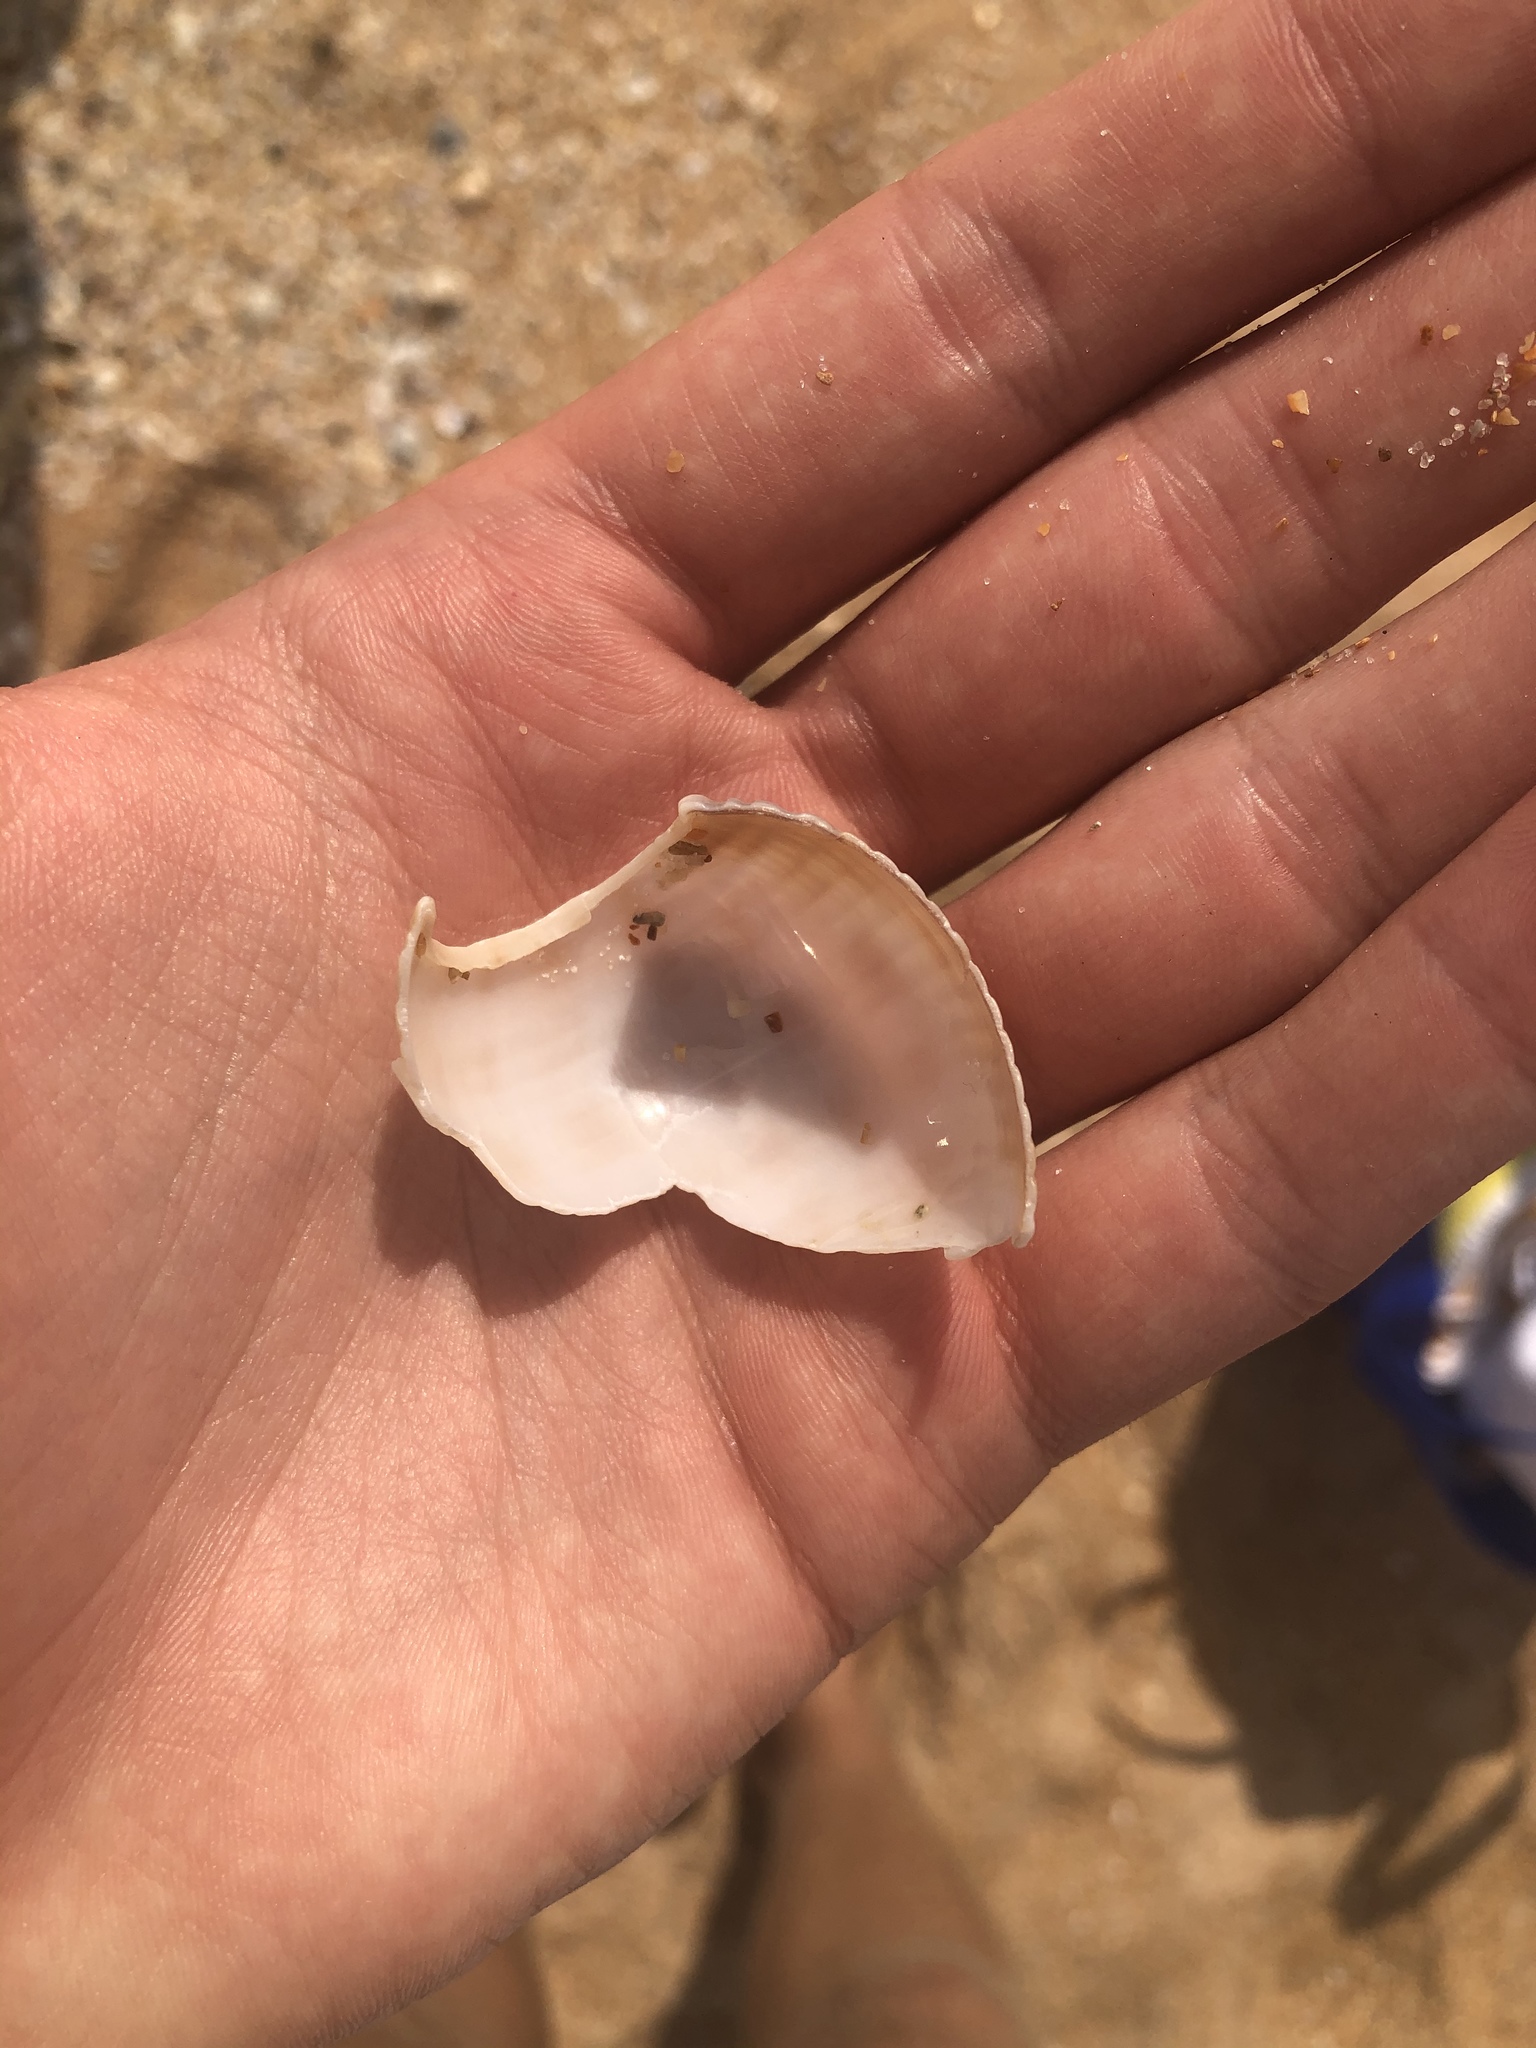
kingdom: Animalia
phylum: Mollusca
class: Gastropoda
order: Littorinimorpha
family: Cassidae
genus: Semicassis
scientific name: Semicassis granulata
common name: Scotch bonnet
